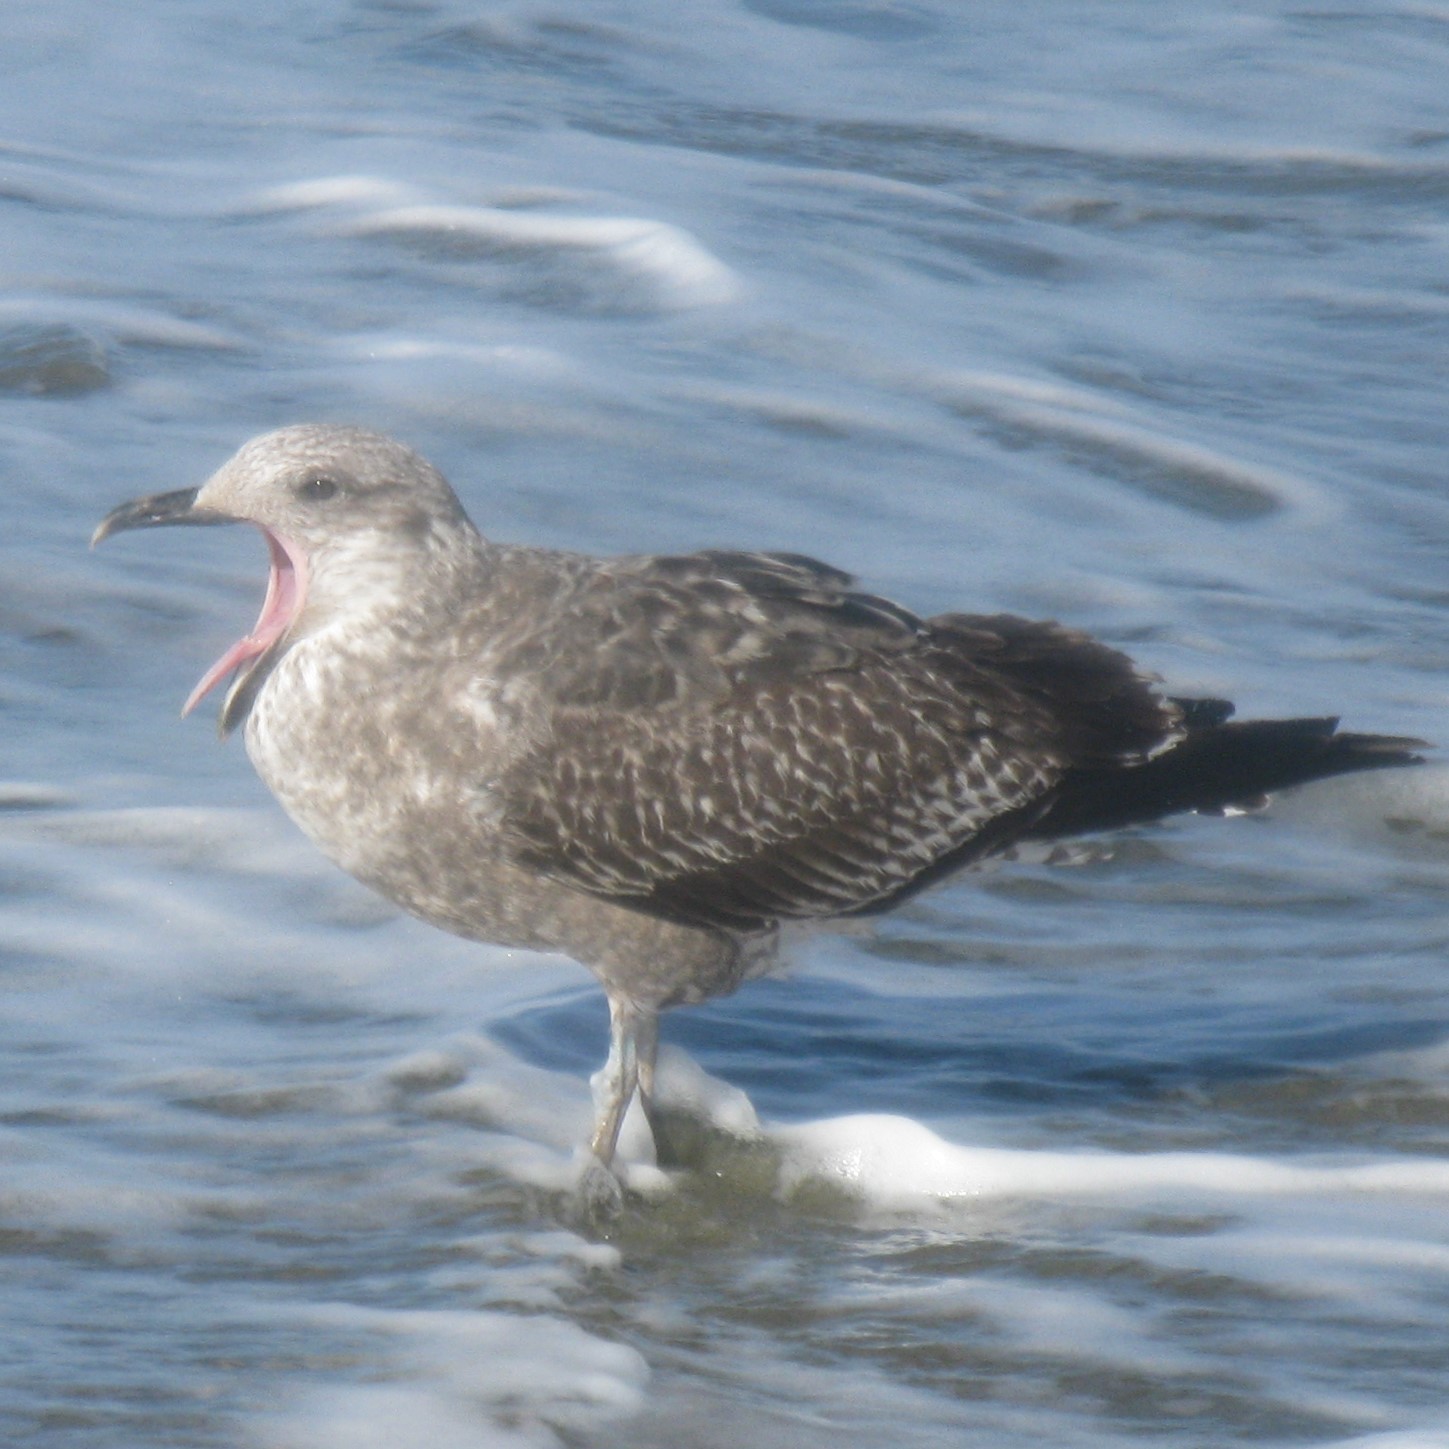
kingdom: Animalia
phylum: Chordata
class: Aves
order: Charadriiformes
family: Laridae
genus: Larus
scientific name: Larus dominicanus
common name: Kelp gull
